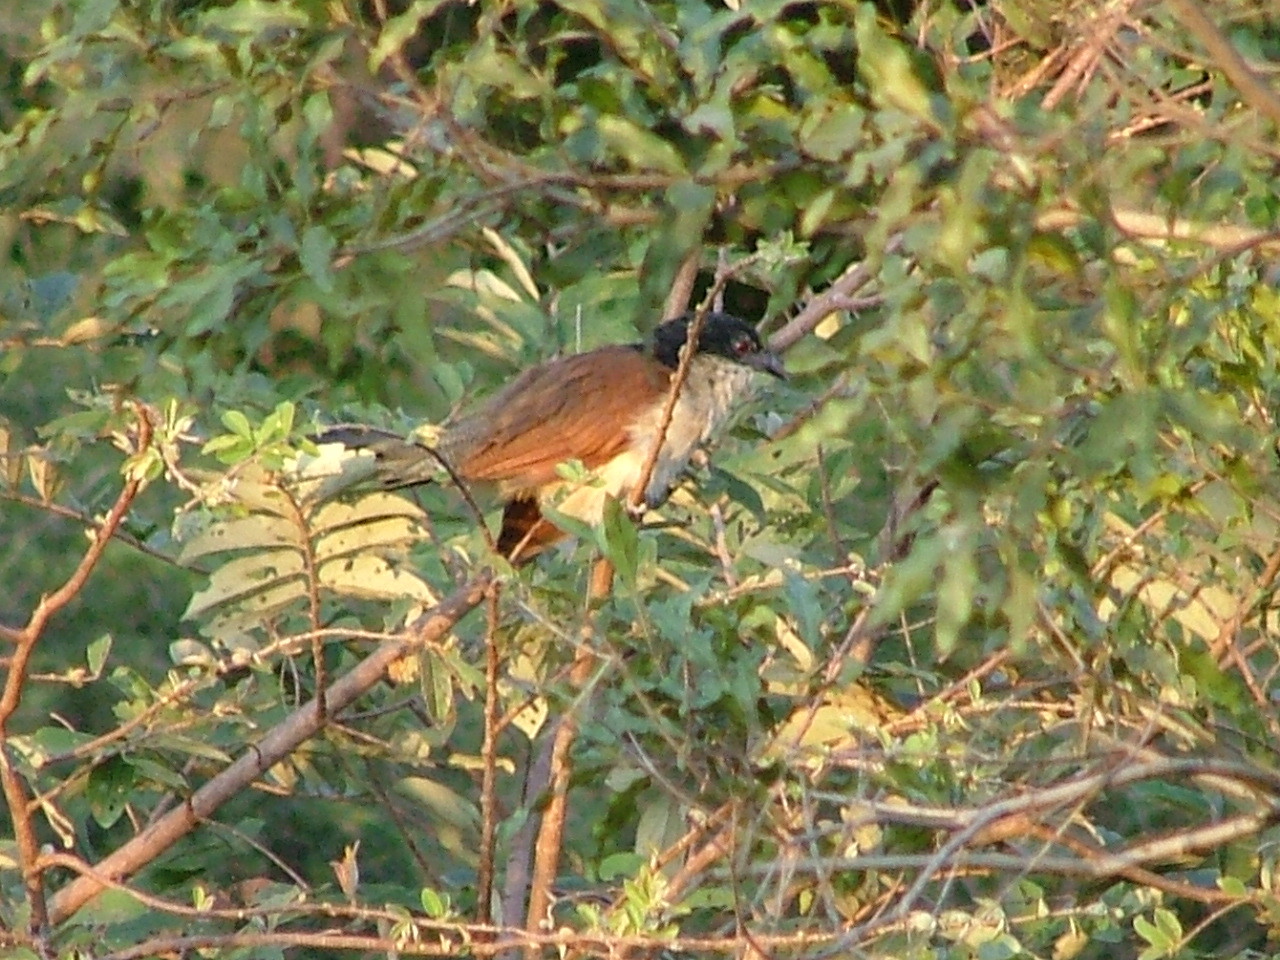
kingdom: Animalia
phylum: Chordata
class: Aves
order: Cuculiformes
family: Cuculidae
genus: Centropus
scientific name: Centropus superciliosus
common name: White-browed coucal
